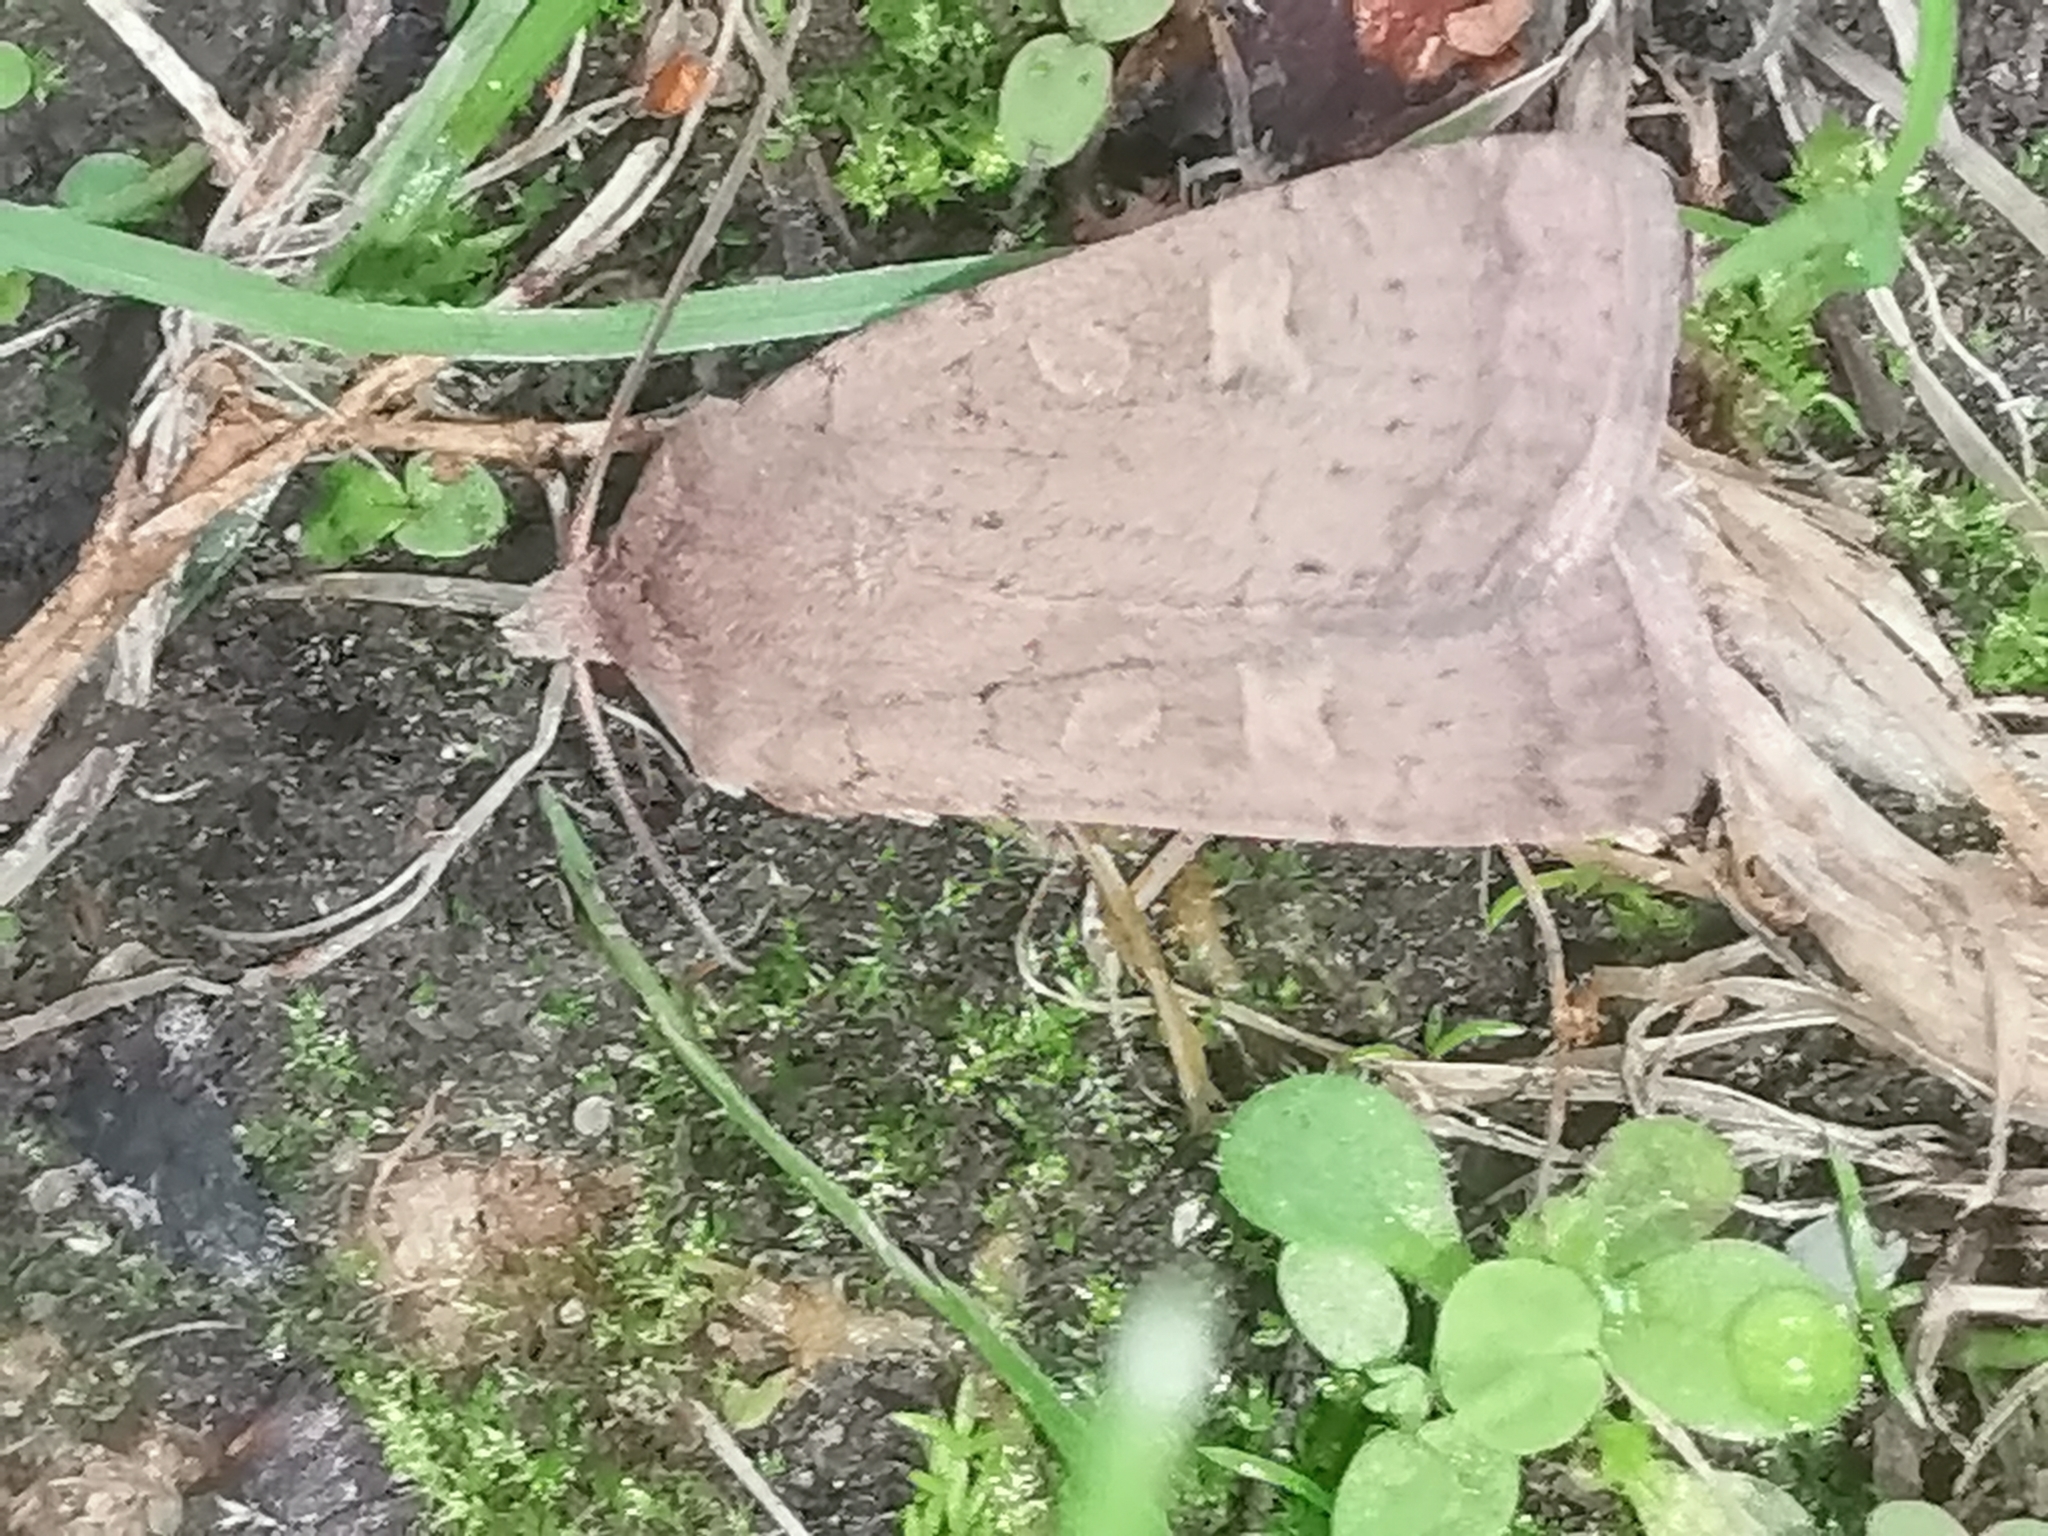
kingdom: Animalia
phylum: Arthropoda
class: Insecta
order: Lepidoptera
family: Noctuidae
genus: Xestia
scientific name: Xestia xanthographa
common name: Square-spot rustic
